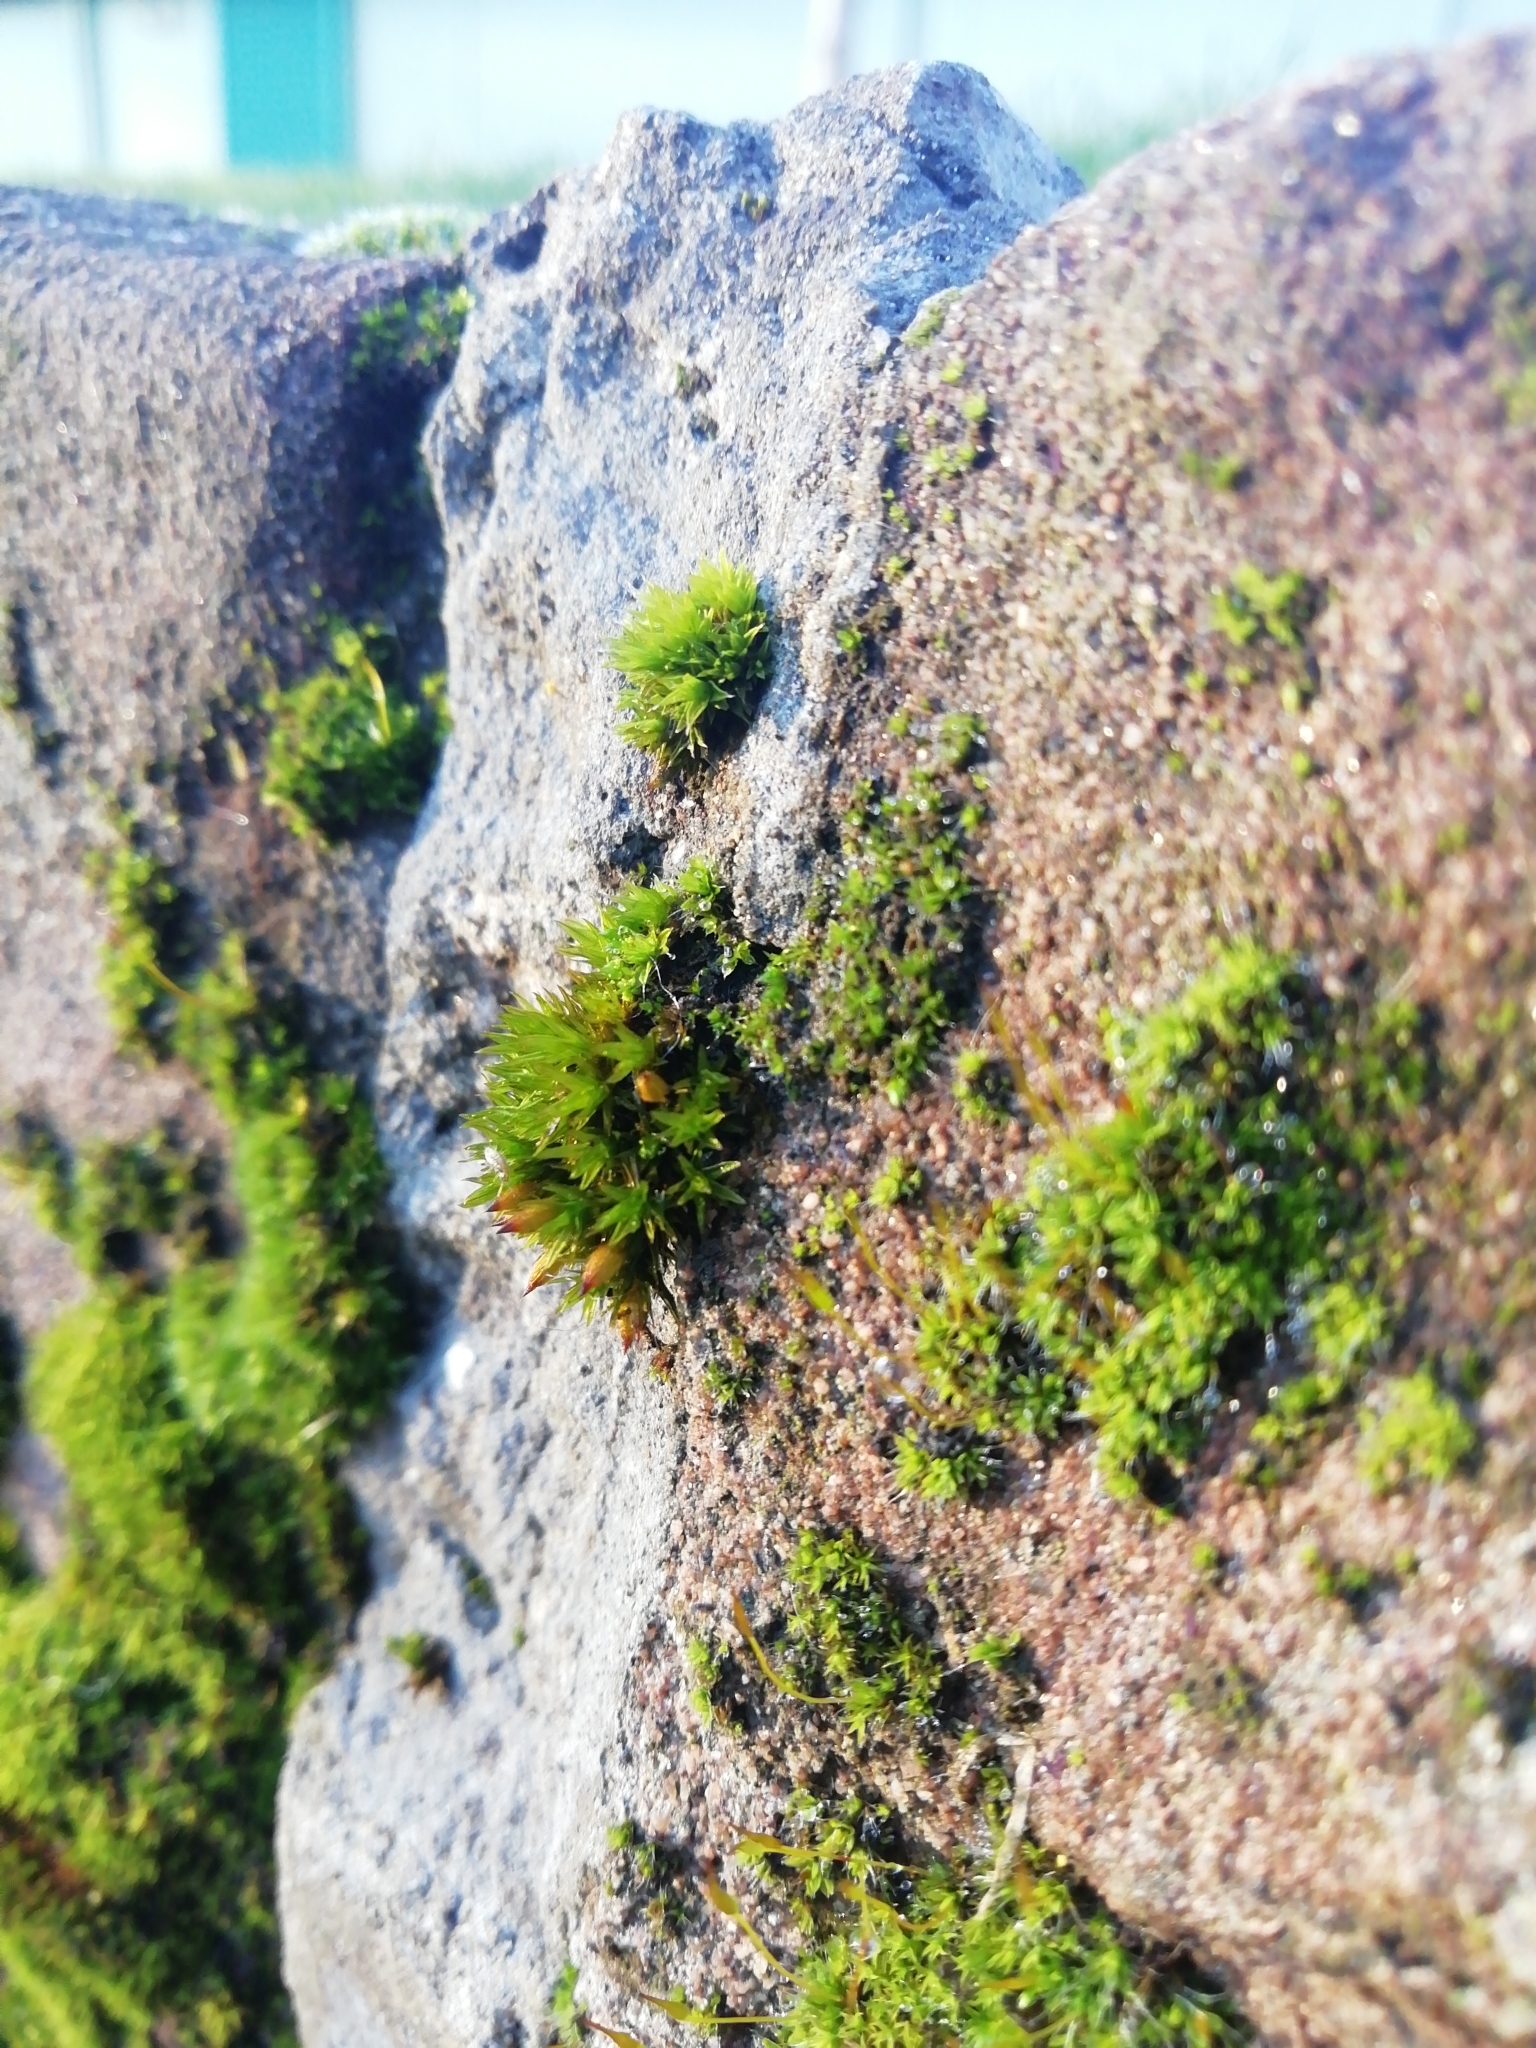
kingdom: Plantae
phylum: Bryophyta
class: Bryopsida
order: Orthotrichales
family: Orthotrichaceae
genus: Orthotrichum
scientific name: Orthotrichum cupulatum
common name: Hooded bristle-moss
